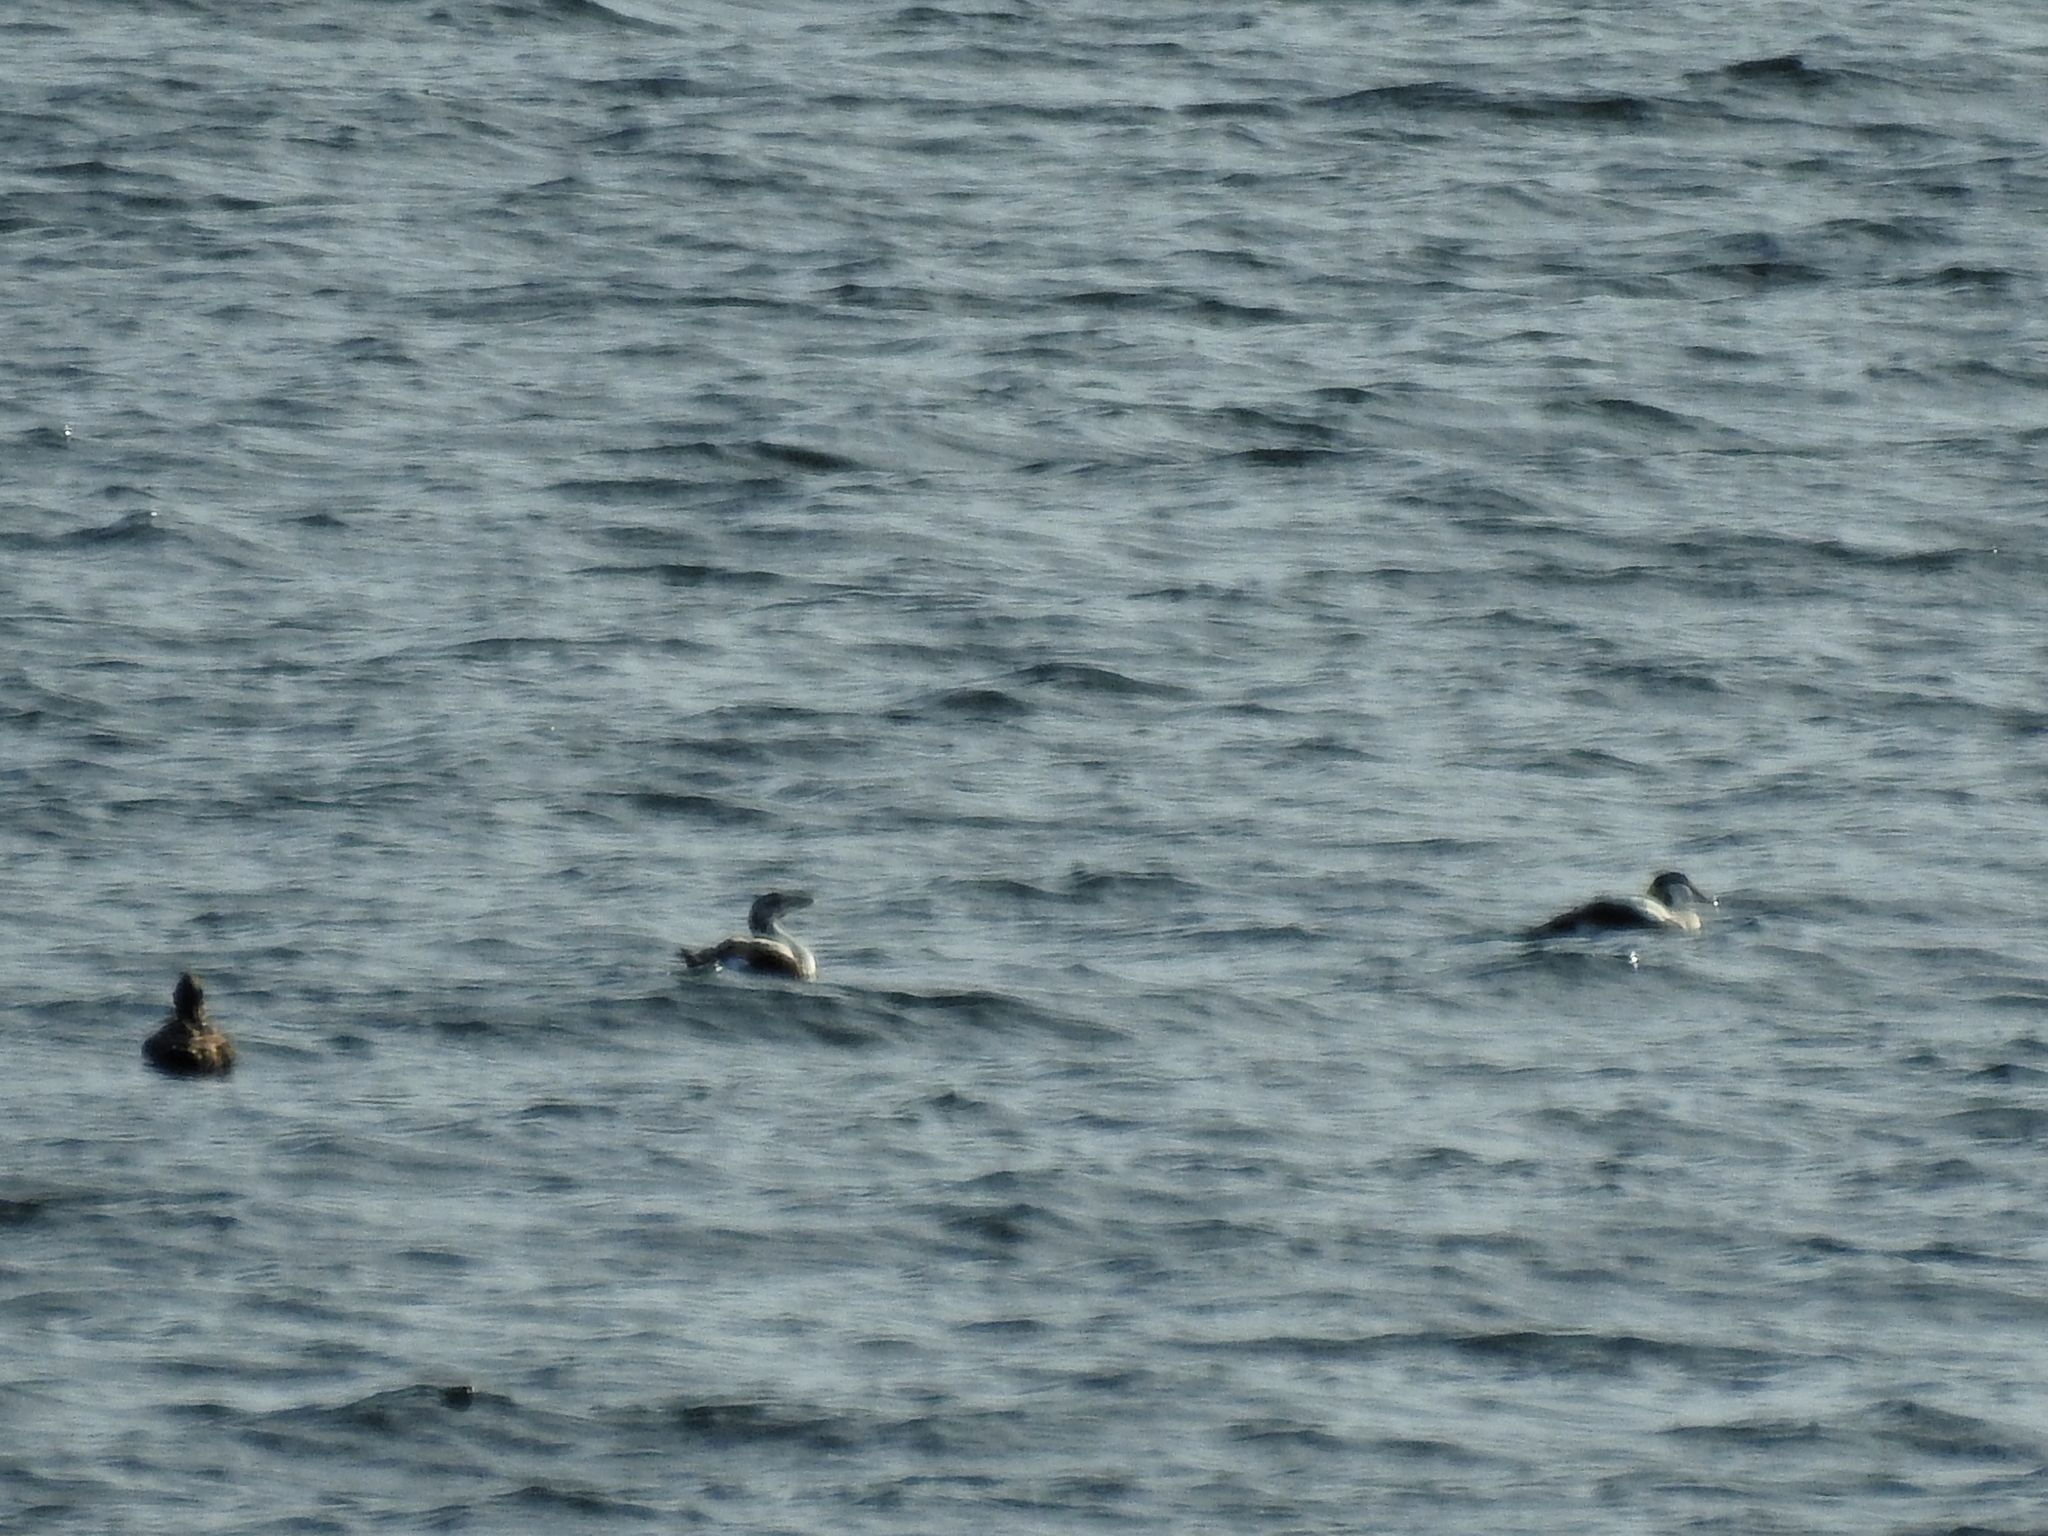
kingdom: Animalia
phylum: Chordata
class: Aves
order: Anseriformes
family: Anatidae
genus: Somateria
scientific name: Somateria mollissima
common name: Common eider
